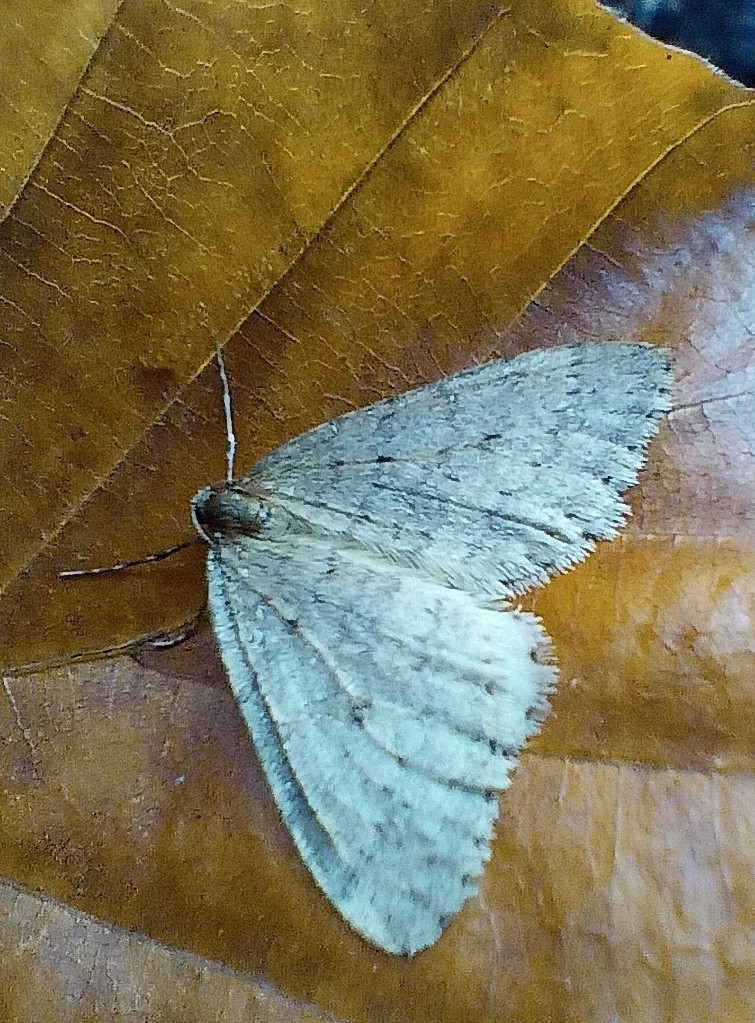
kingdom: Animalia
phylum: Arthropoda
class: Insecta
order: Lepidoptera
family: Geometridae
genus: Operophtera
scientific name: Operophtera brumata
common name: Winter moth
